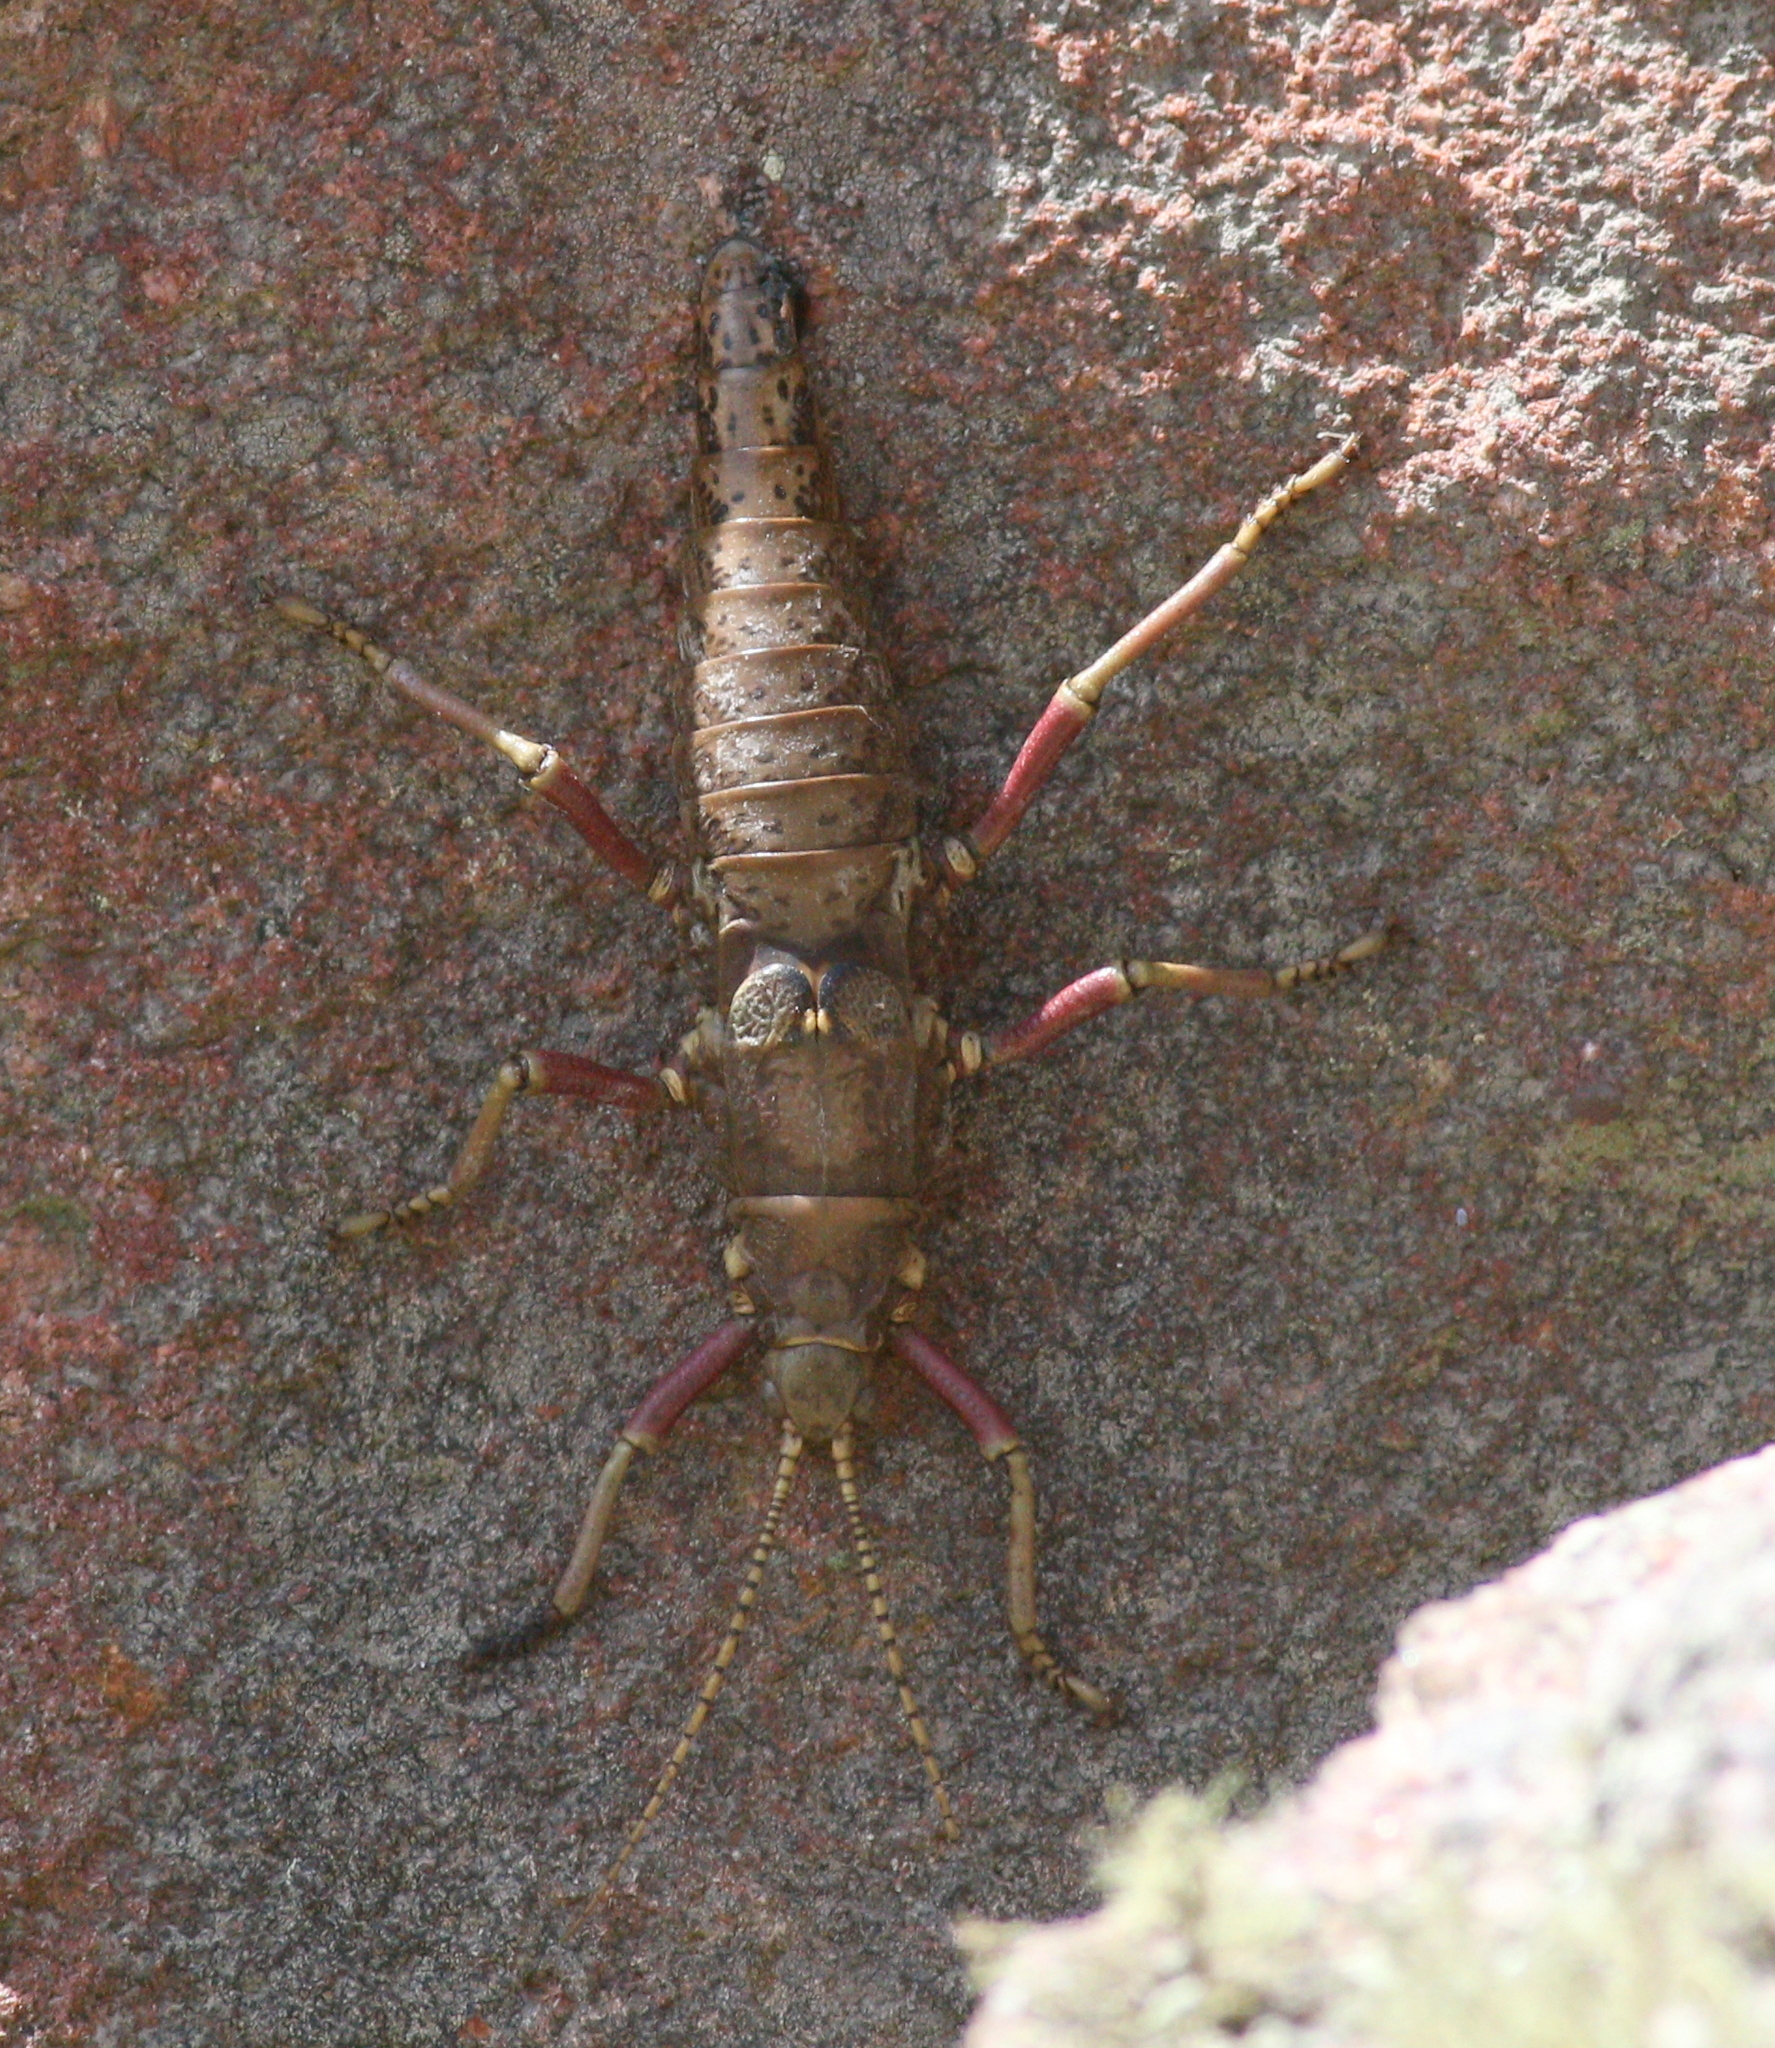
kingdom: Animalia
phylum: Arthropoda
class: Insecta
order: Phasmida
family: Agathemeridae
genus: Agathemera
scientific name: Agathemera luteola
